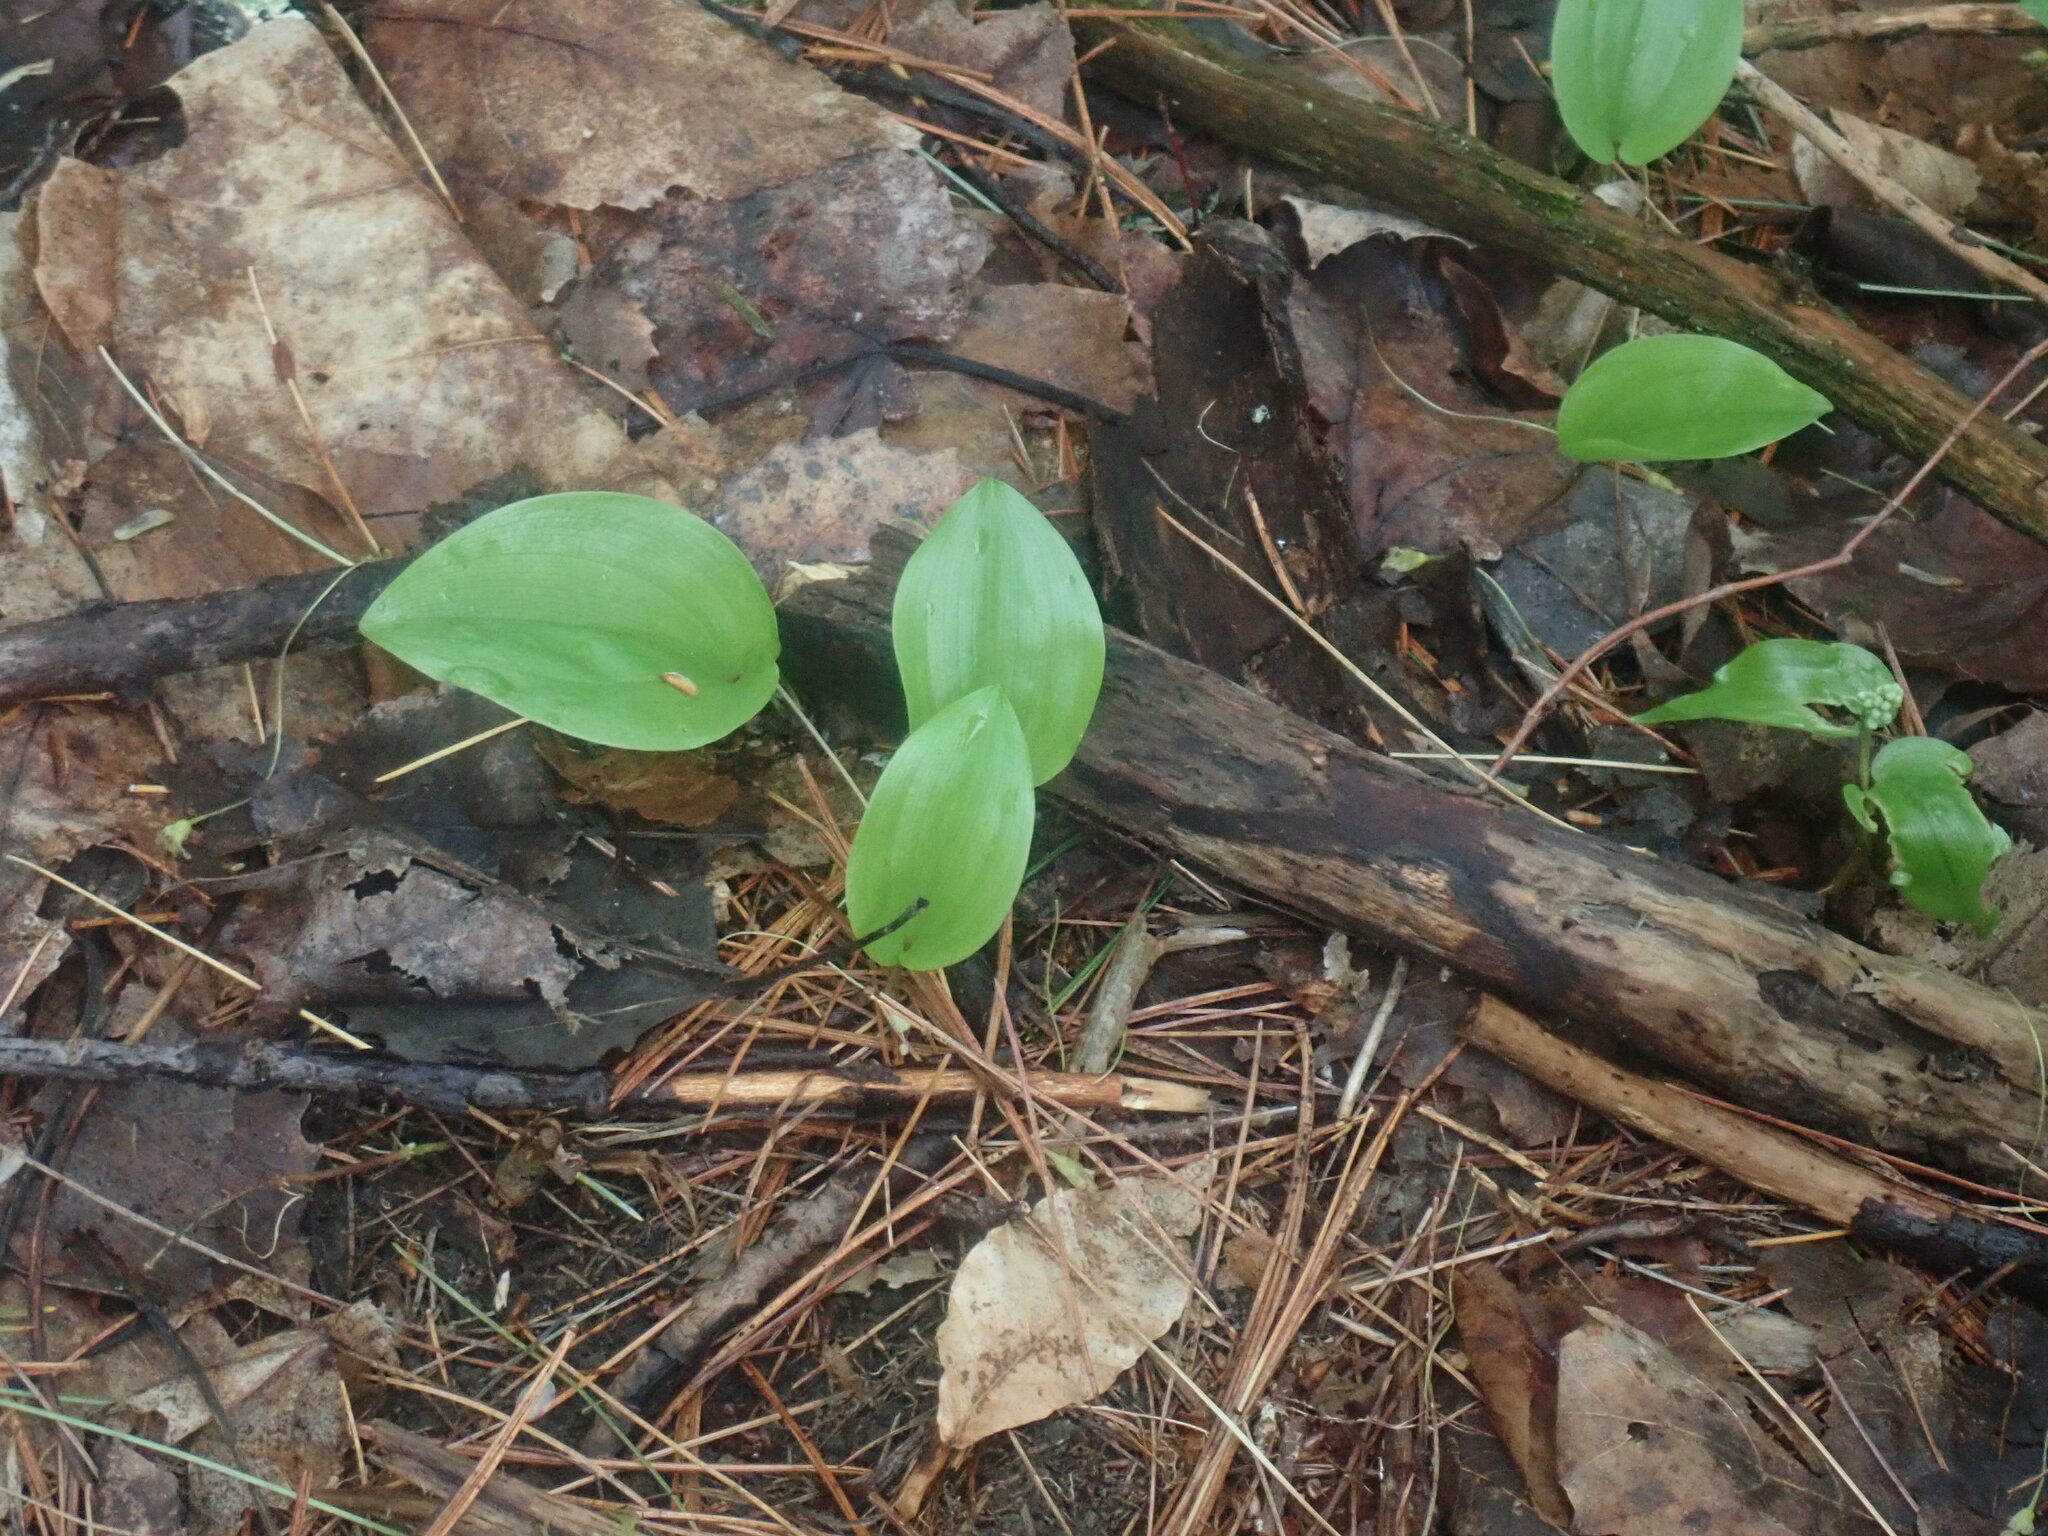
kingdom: Plantae
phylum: Tracheophyta
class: Liliopsida
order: Asparagales
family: Asparagaceae
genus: Maianthemum
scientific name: Maianthemum canadense
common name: False lily-of-the-valley
